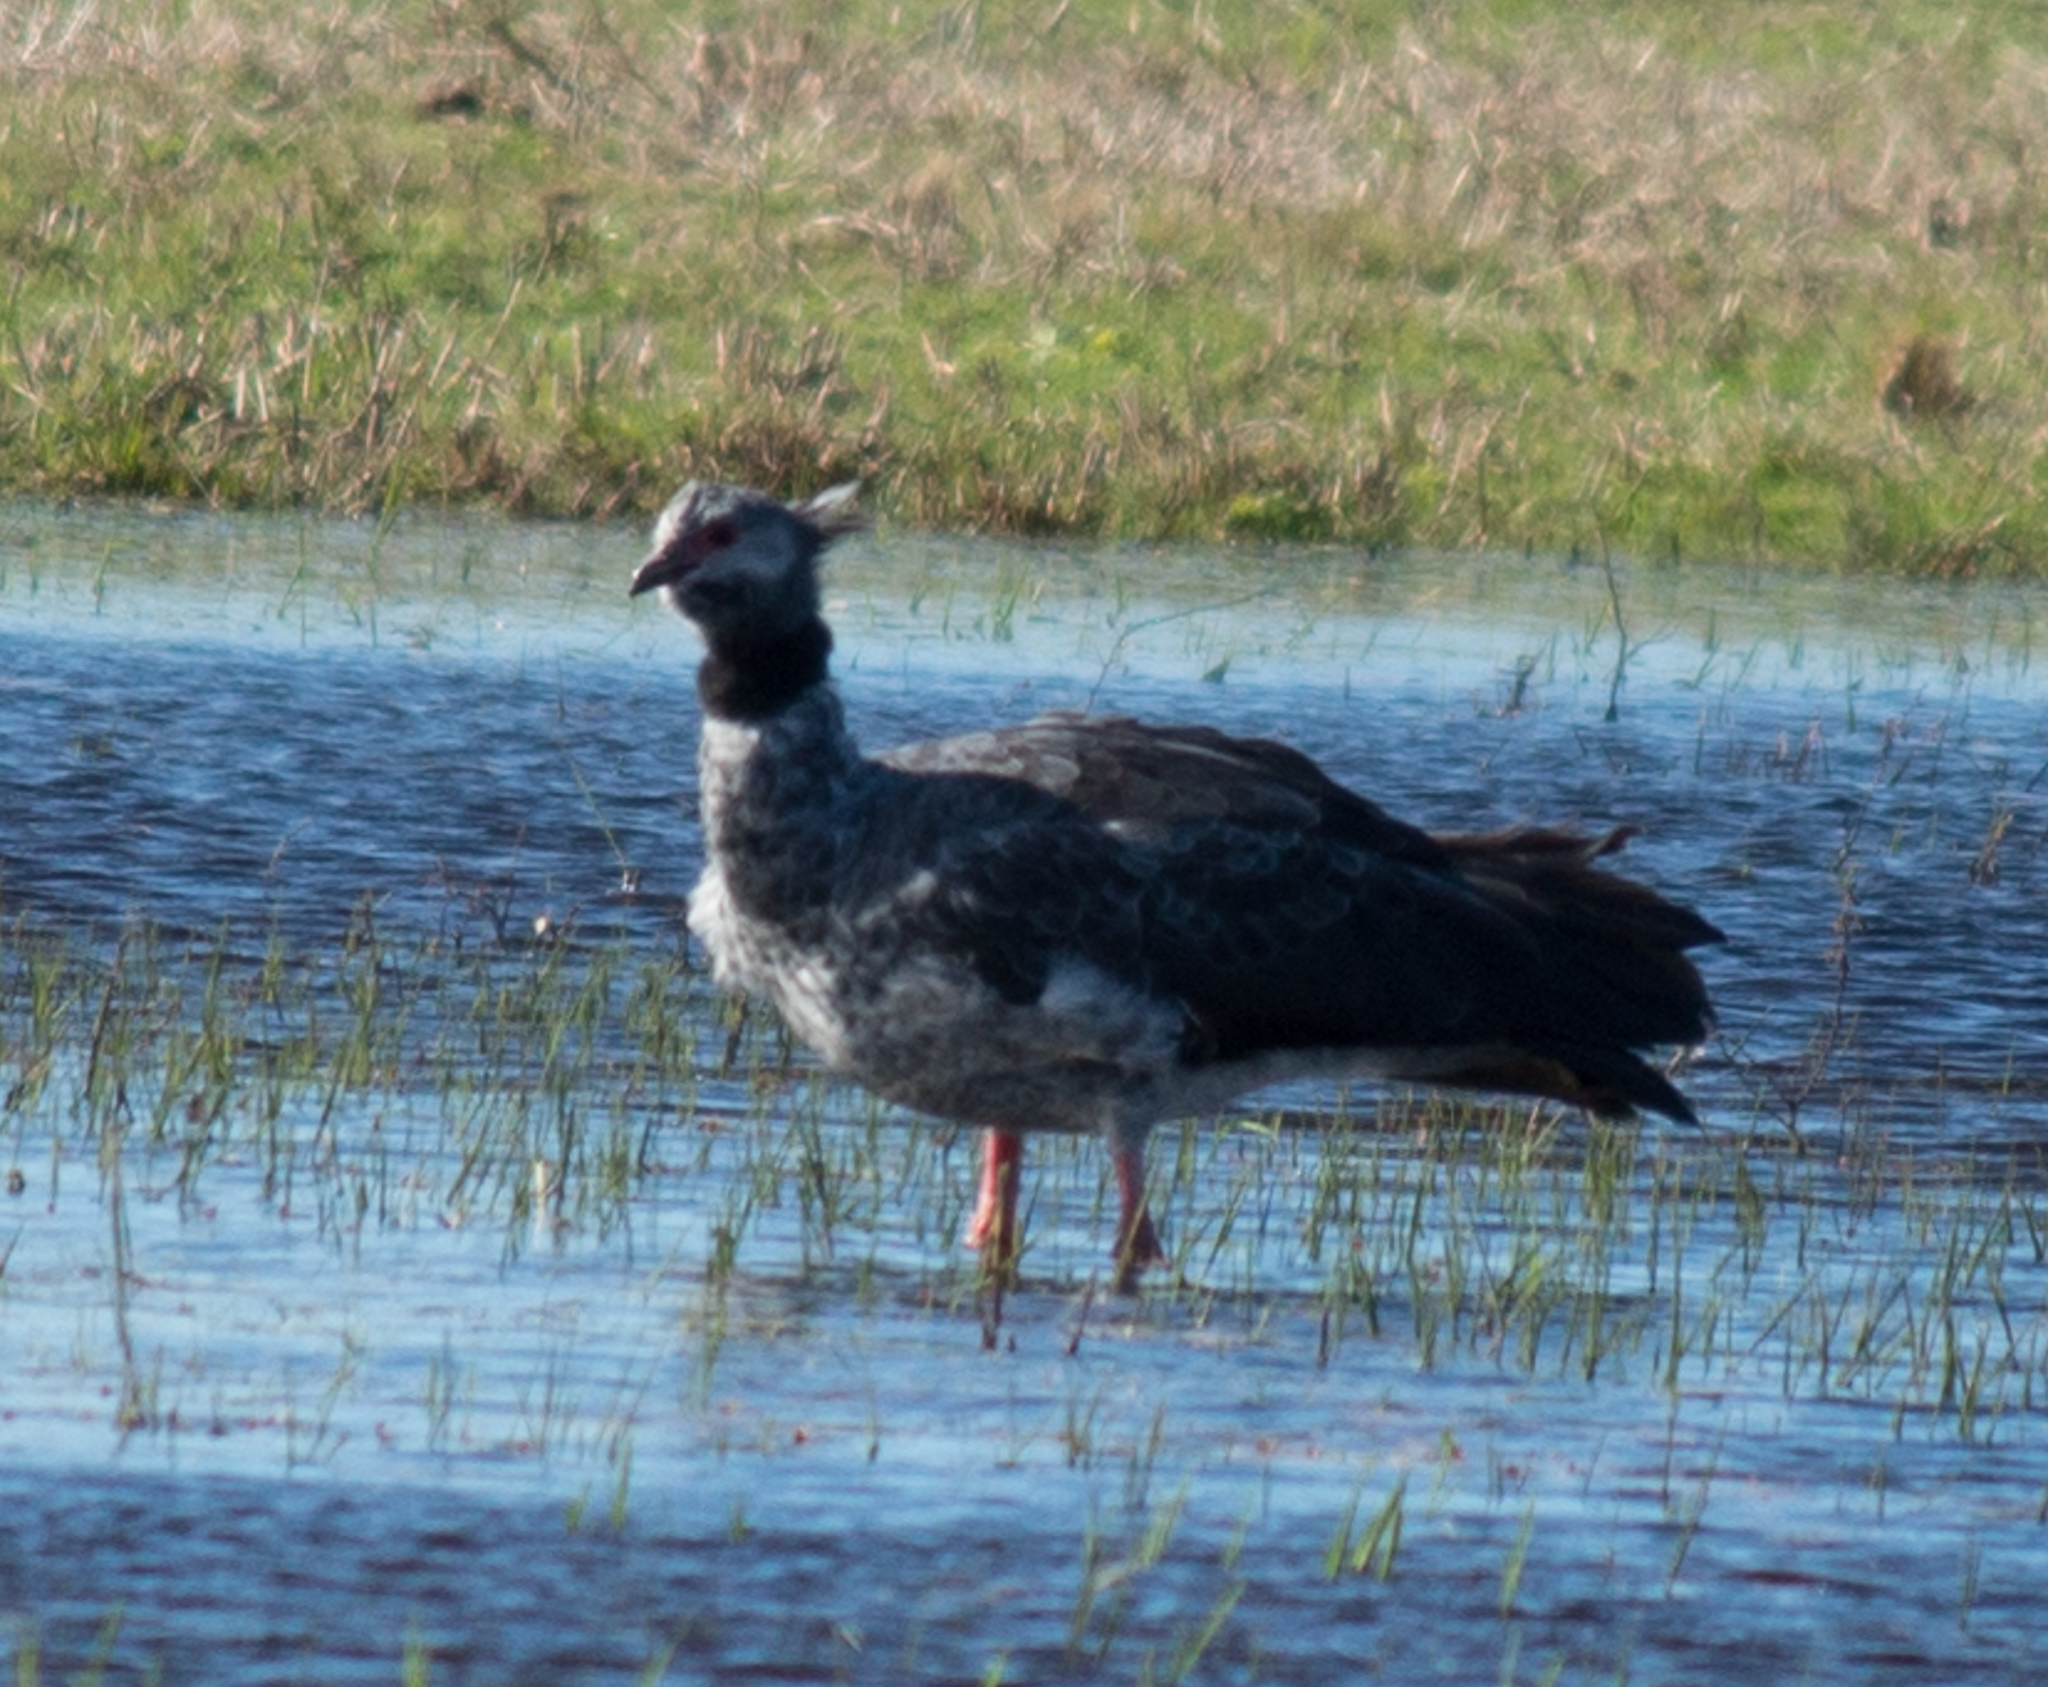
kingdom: Animalia
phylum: Chordata
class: Aves
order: Anseriformes
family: Anhimidae
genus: Chauna
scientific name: Chauna torquata
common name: Southern screamer
